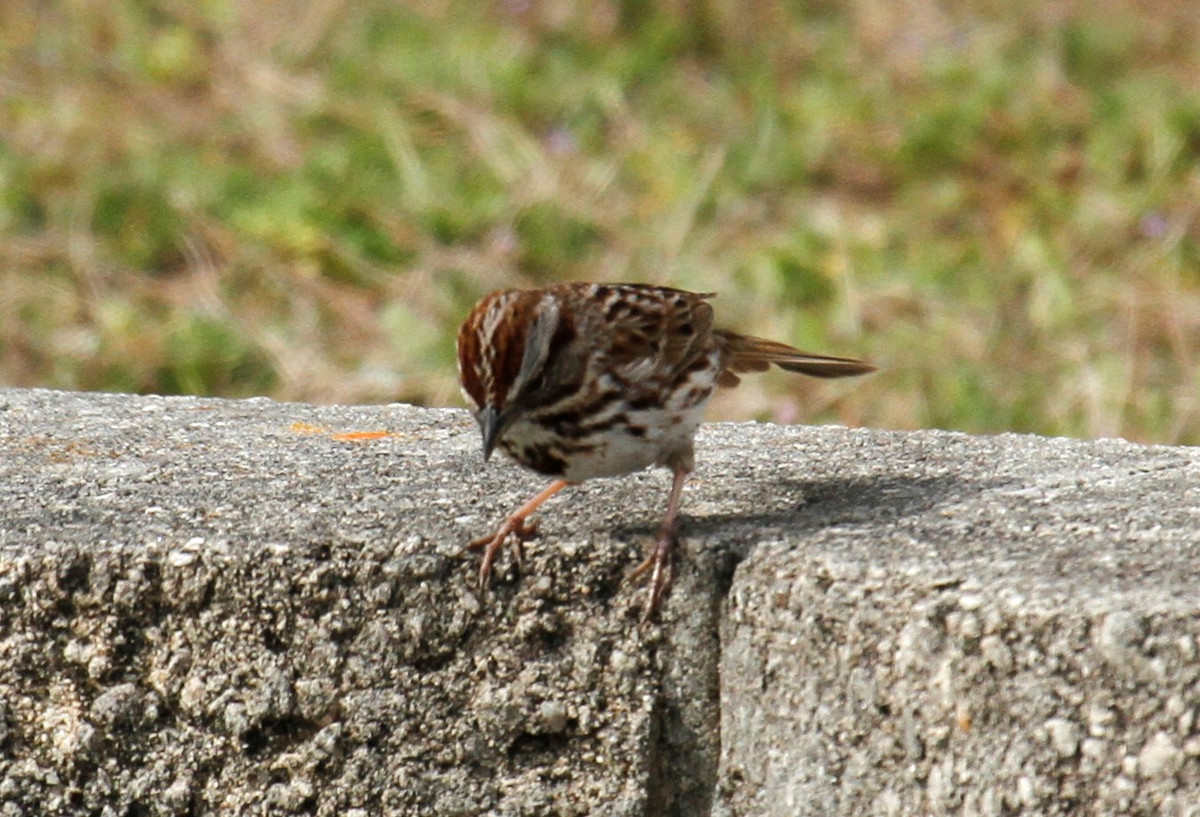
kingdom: Animalia
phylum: Chordata
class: Aves
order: Passeriformes
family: Passerellidae
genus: Melospiza
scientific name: Melospiza melodia
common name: Song sparrow
